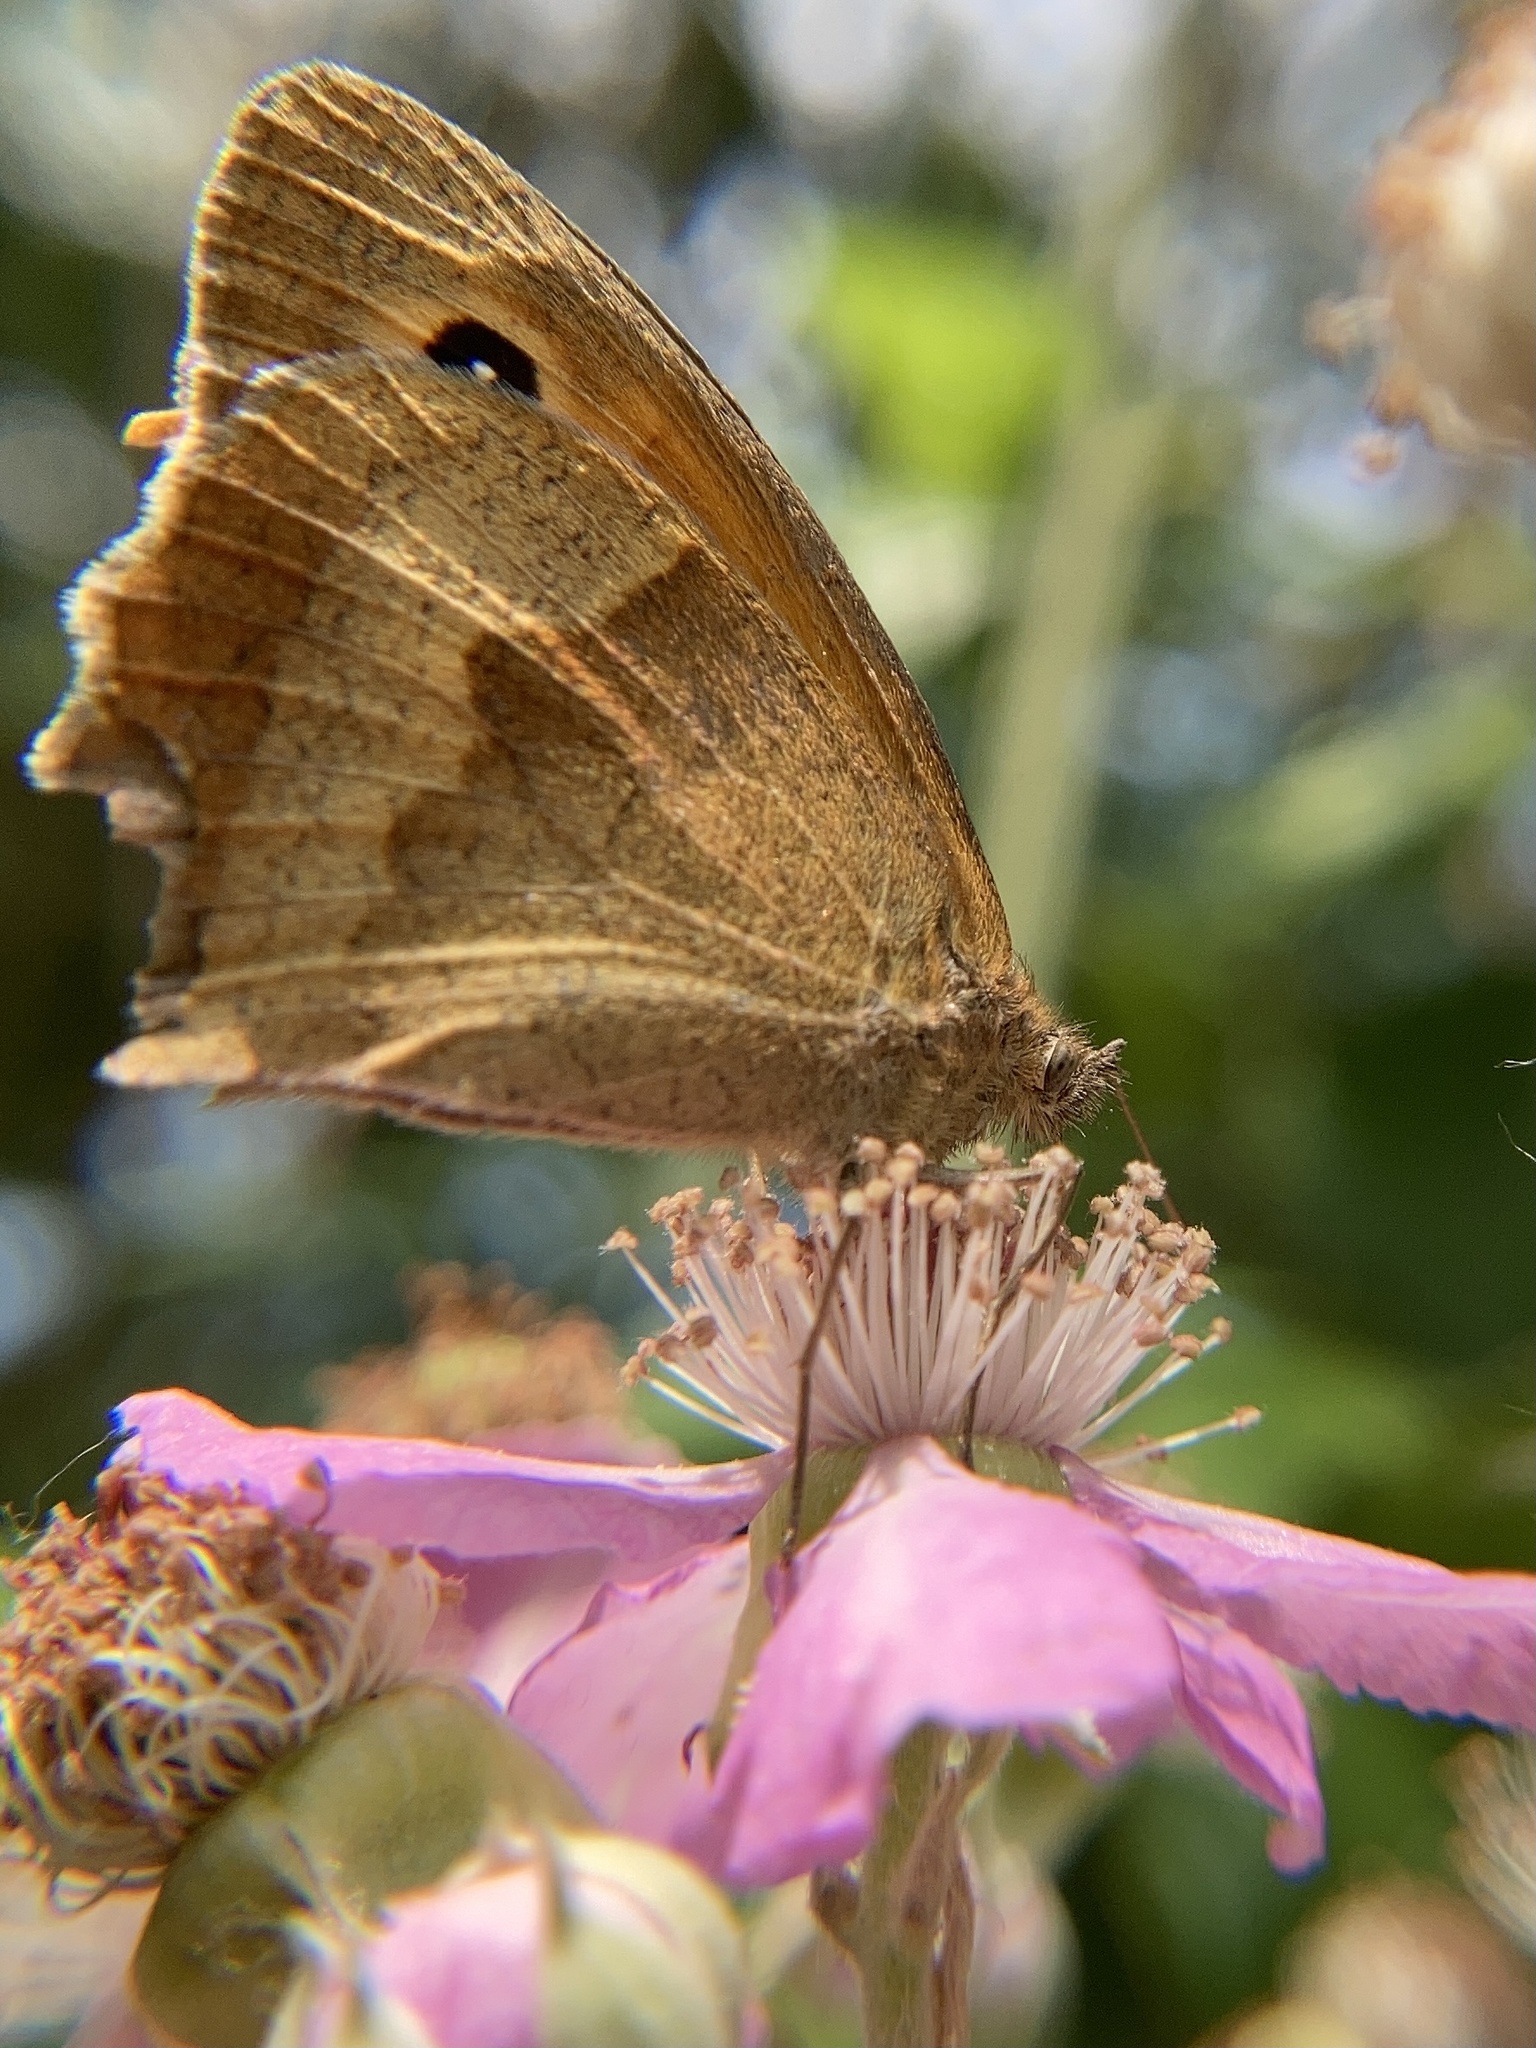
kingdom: Animalia
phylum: Arthropoda
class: Insecta
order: Lepidoptera
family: Nymphalidae
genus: Maniola
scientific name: Maniola jurtina
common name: Meadow brown
